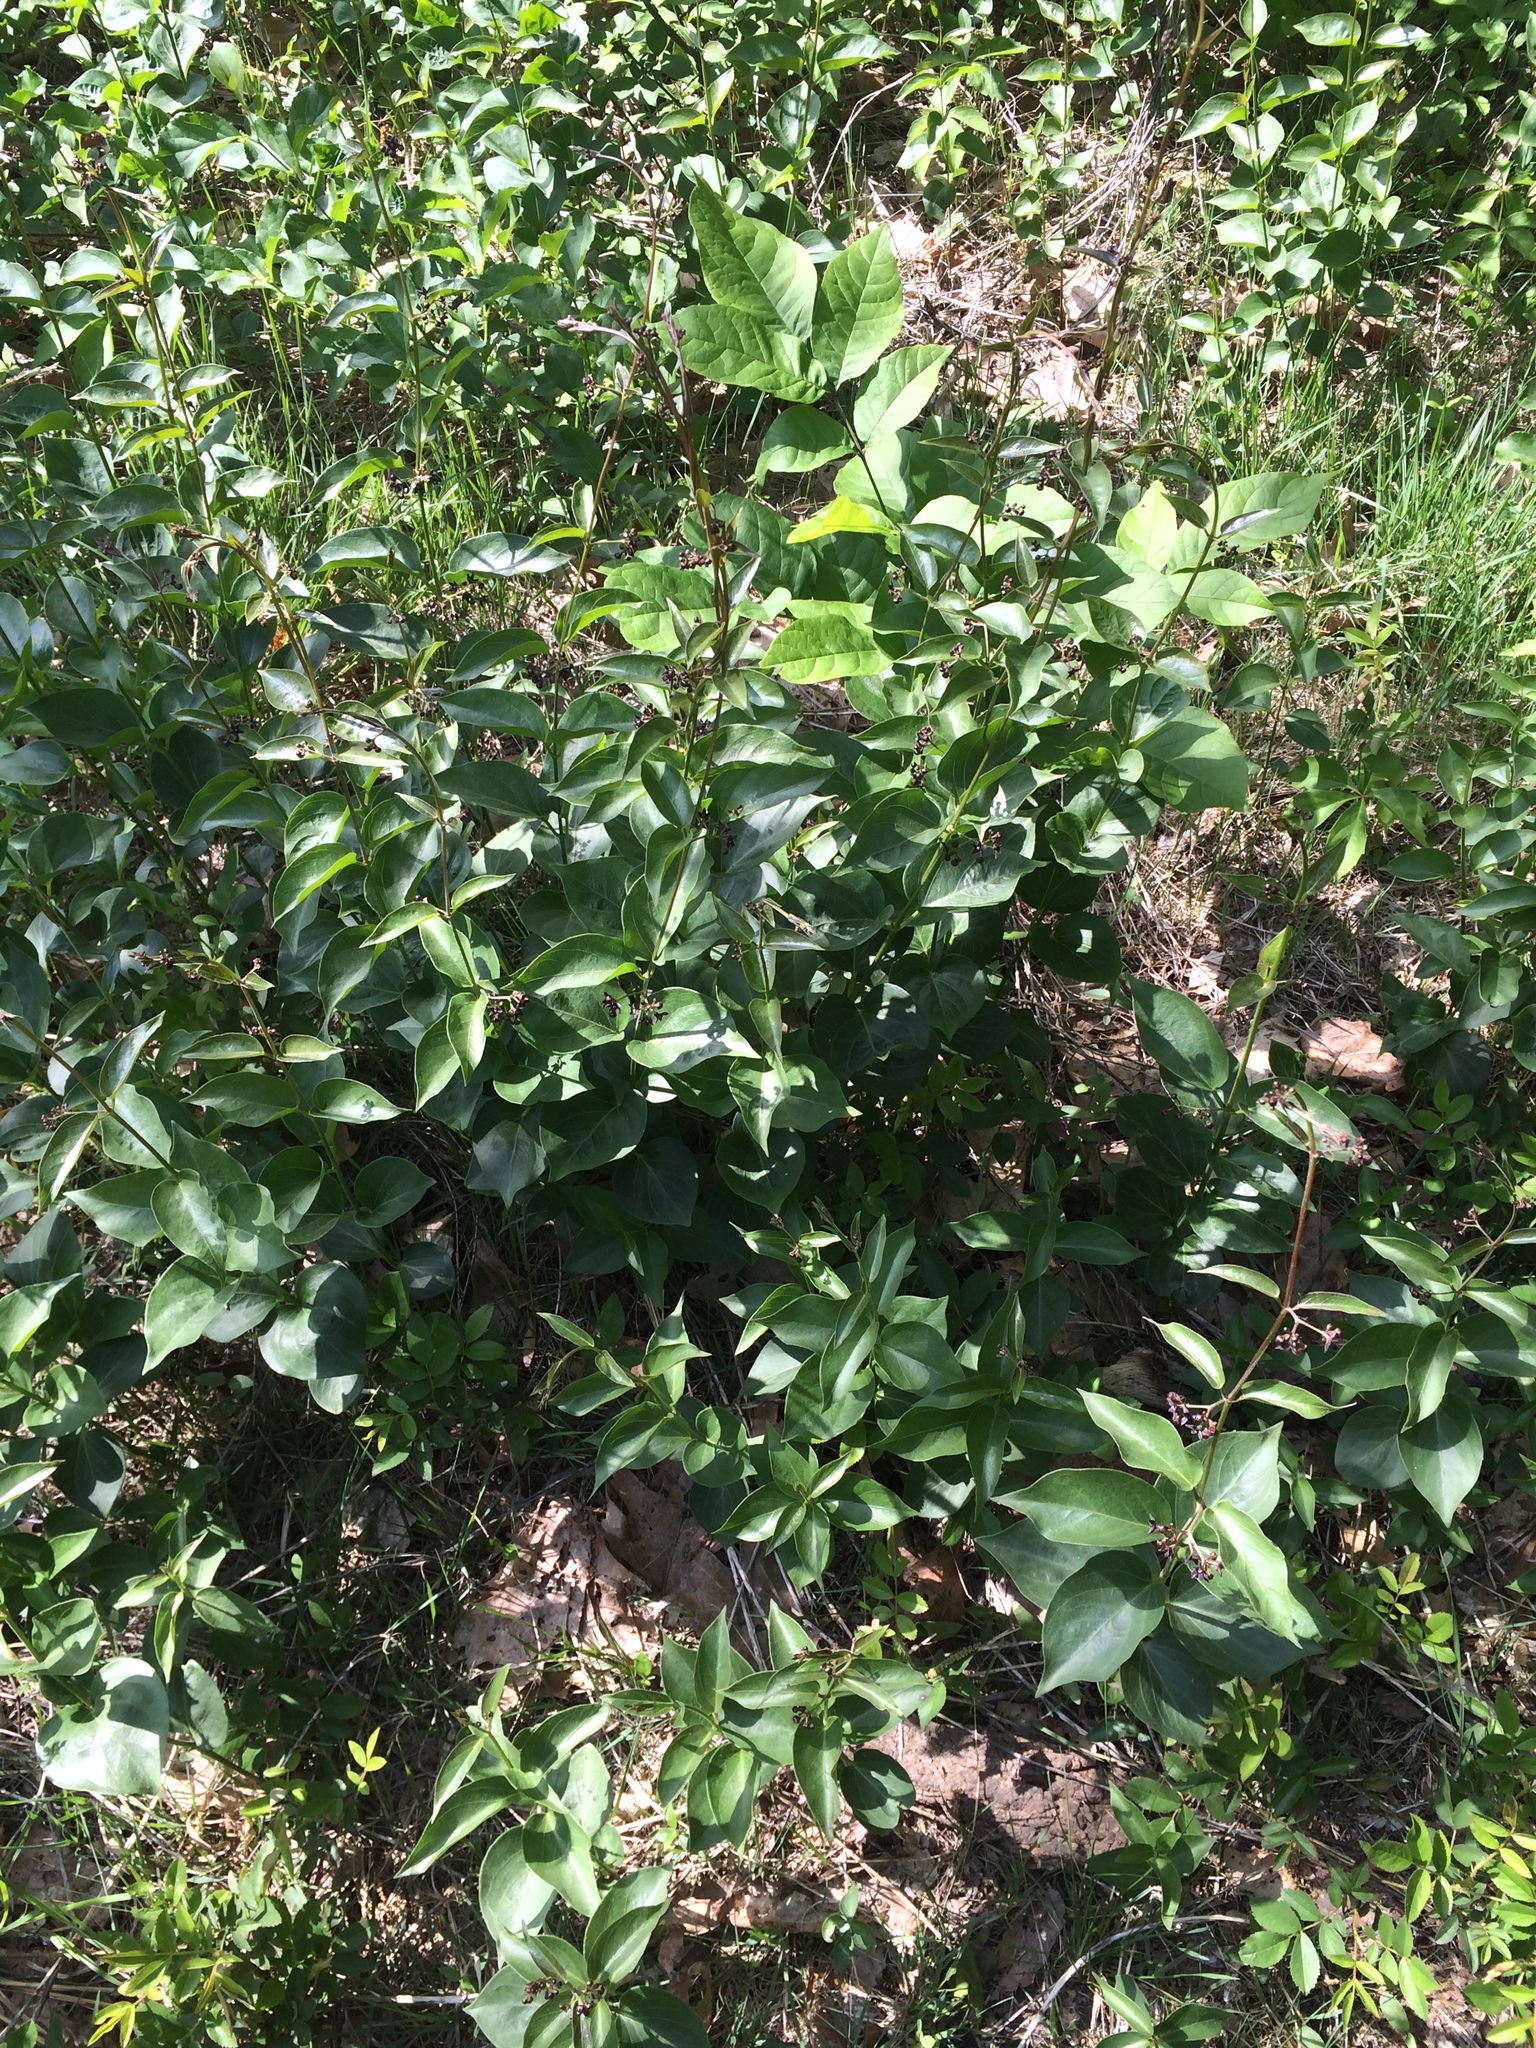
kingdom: Plantae
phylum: Tracheophyta
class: Magnoliopsida
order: Gentianales
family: Apocynaceae
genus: Vincetoxicum
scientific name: Vincetoxicum nigrum
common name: Black swallow-wort
